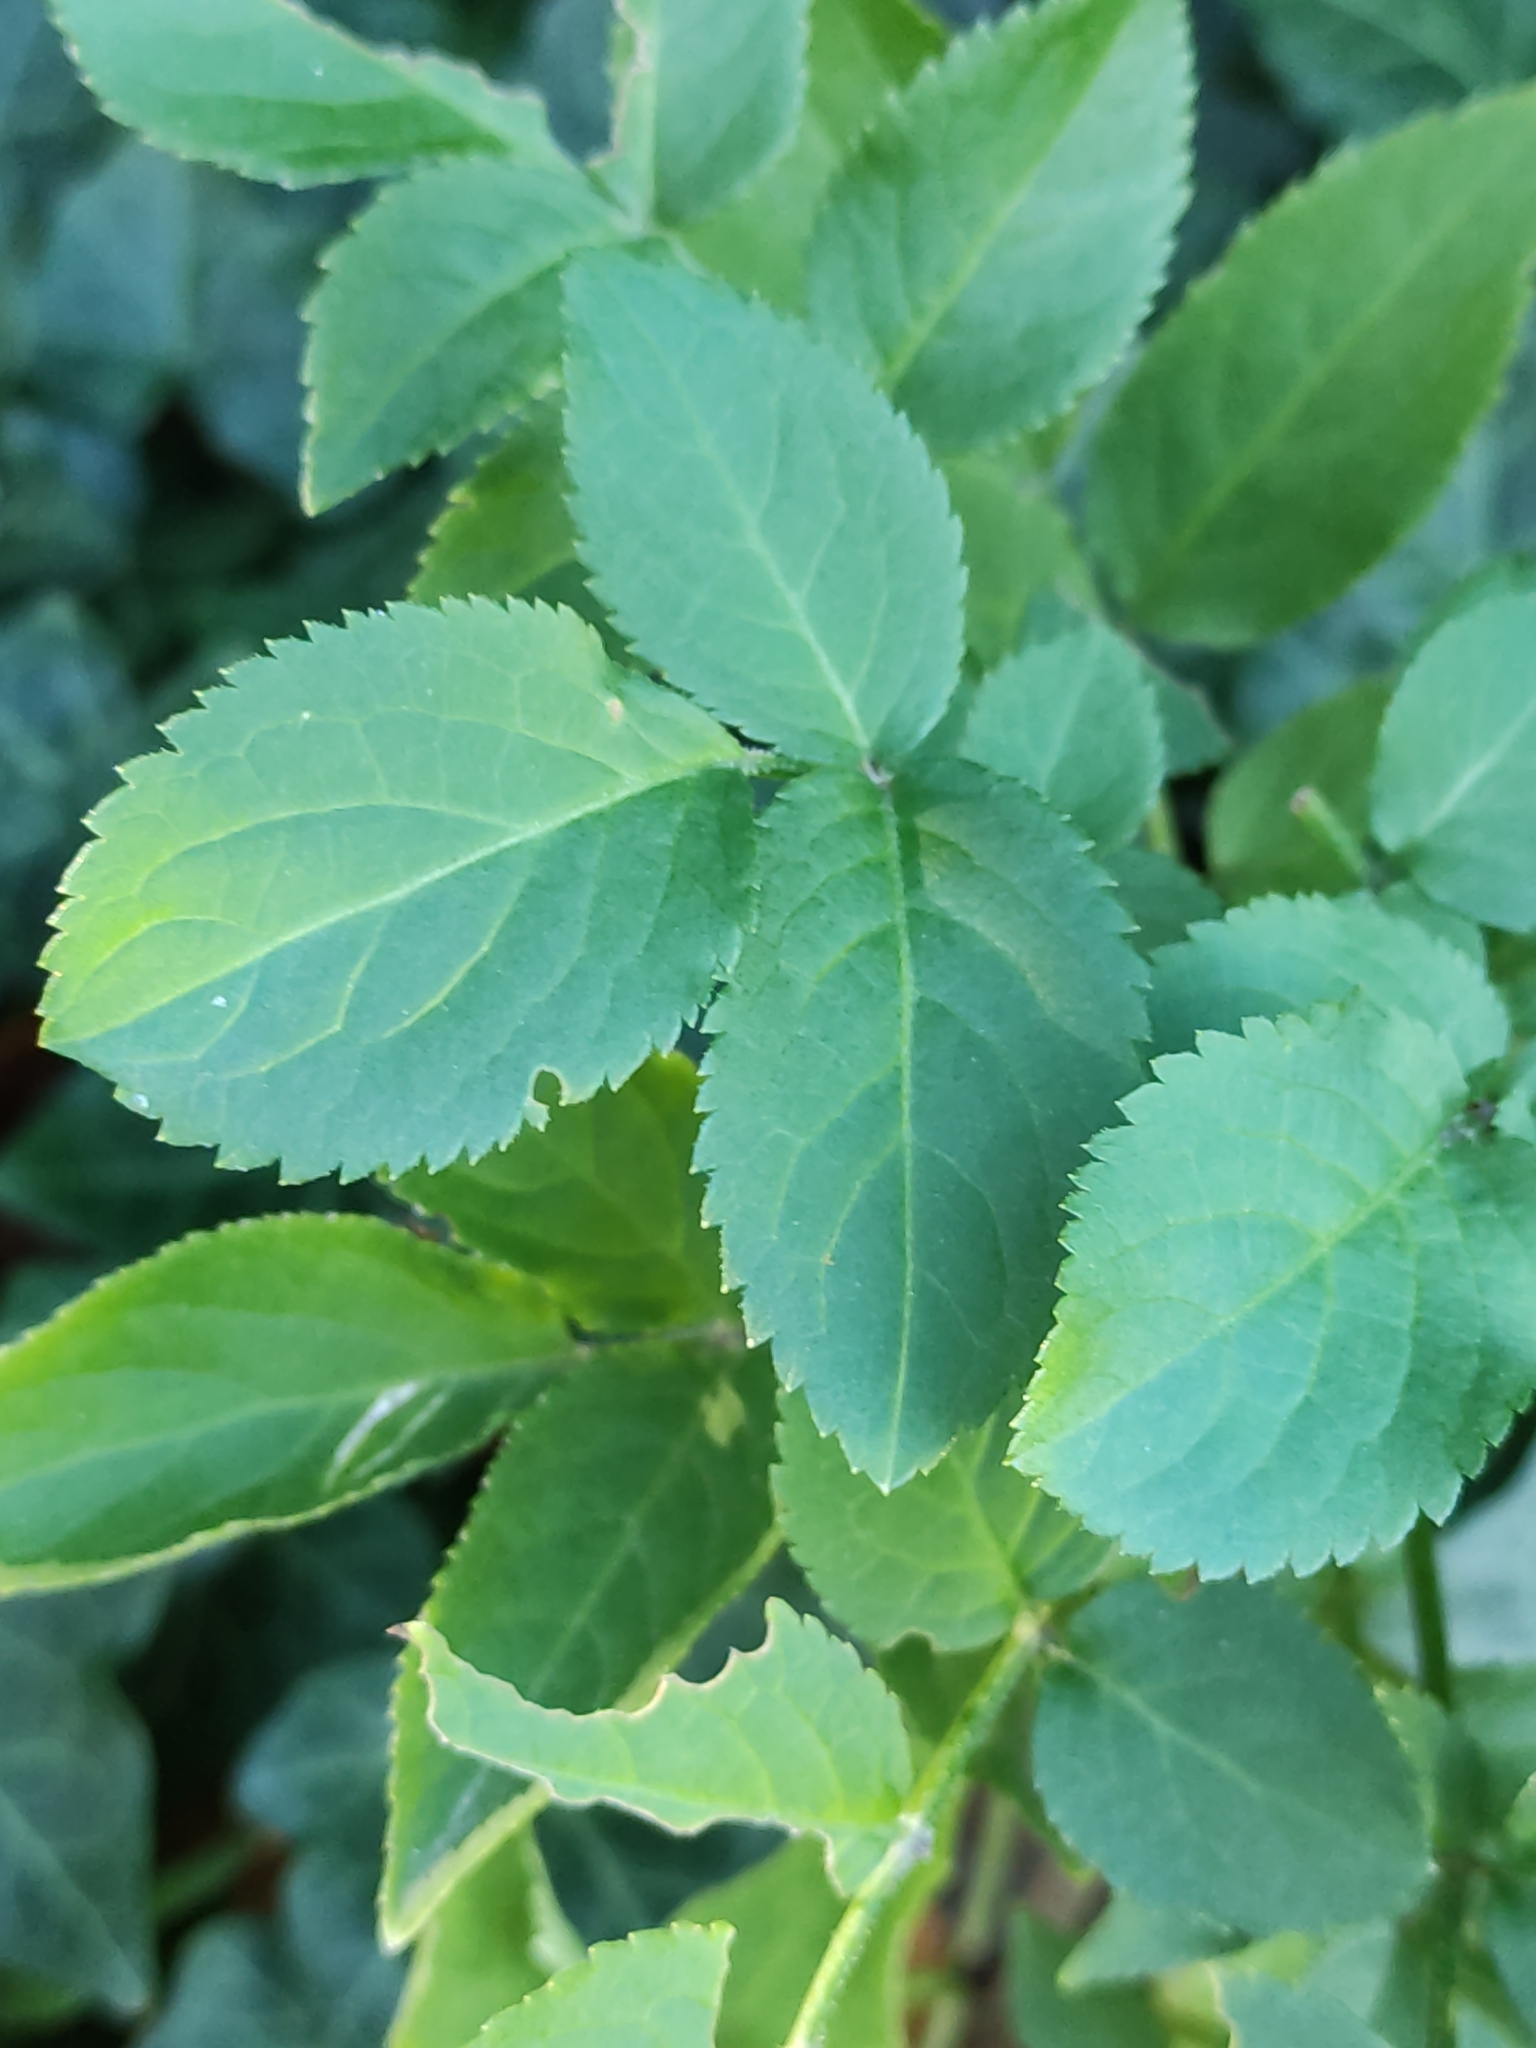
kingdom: Plantae
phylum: Tracheophyta
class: Magnoliopsida
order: Dipsacales
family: Viburnaceae
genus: Sambucus
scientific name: Sambucus nigra
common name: Elder
